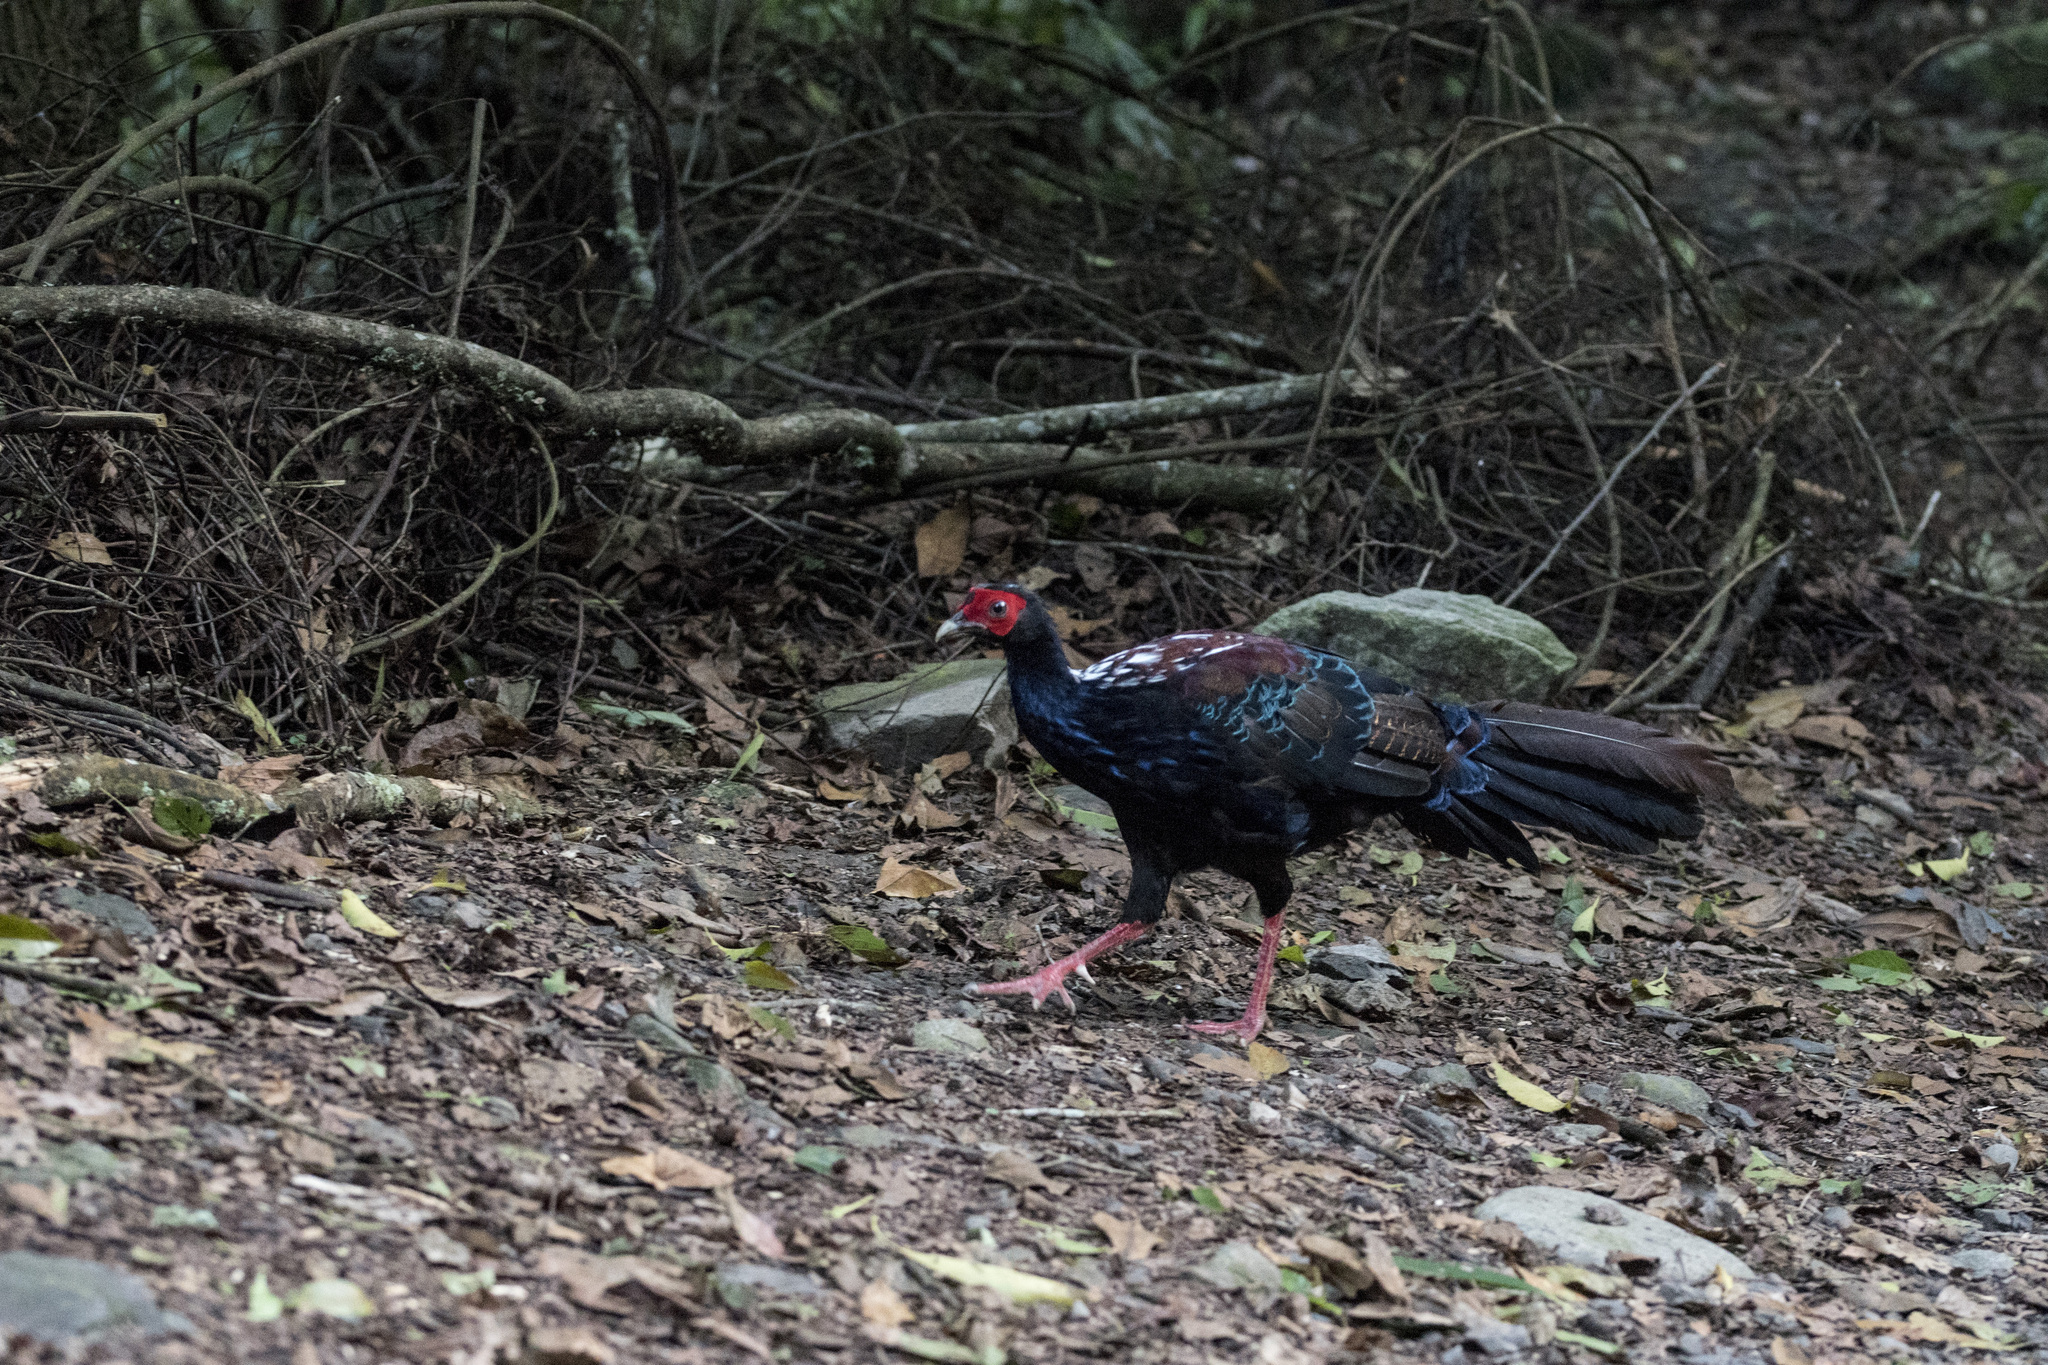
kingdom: Animalia
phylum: Chordata
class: Aves
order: Galliformes
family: Phasianidae
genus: Lophura
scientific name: Lophura swinhoii
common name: Swinhoe's pheasant
